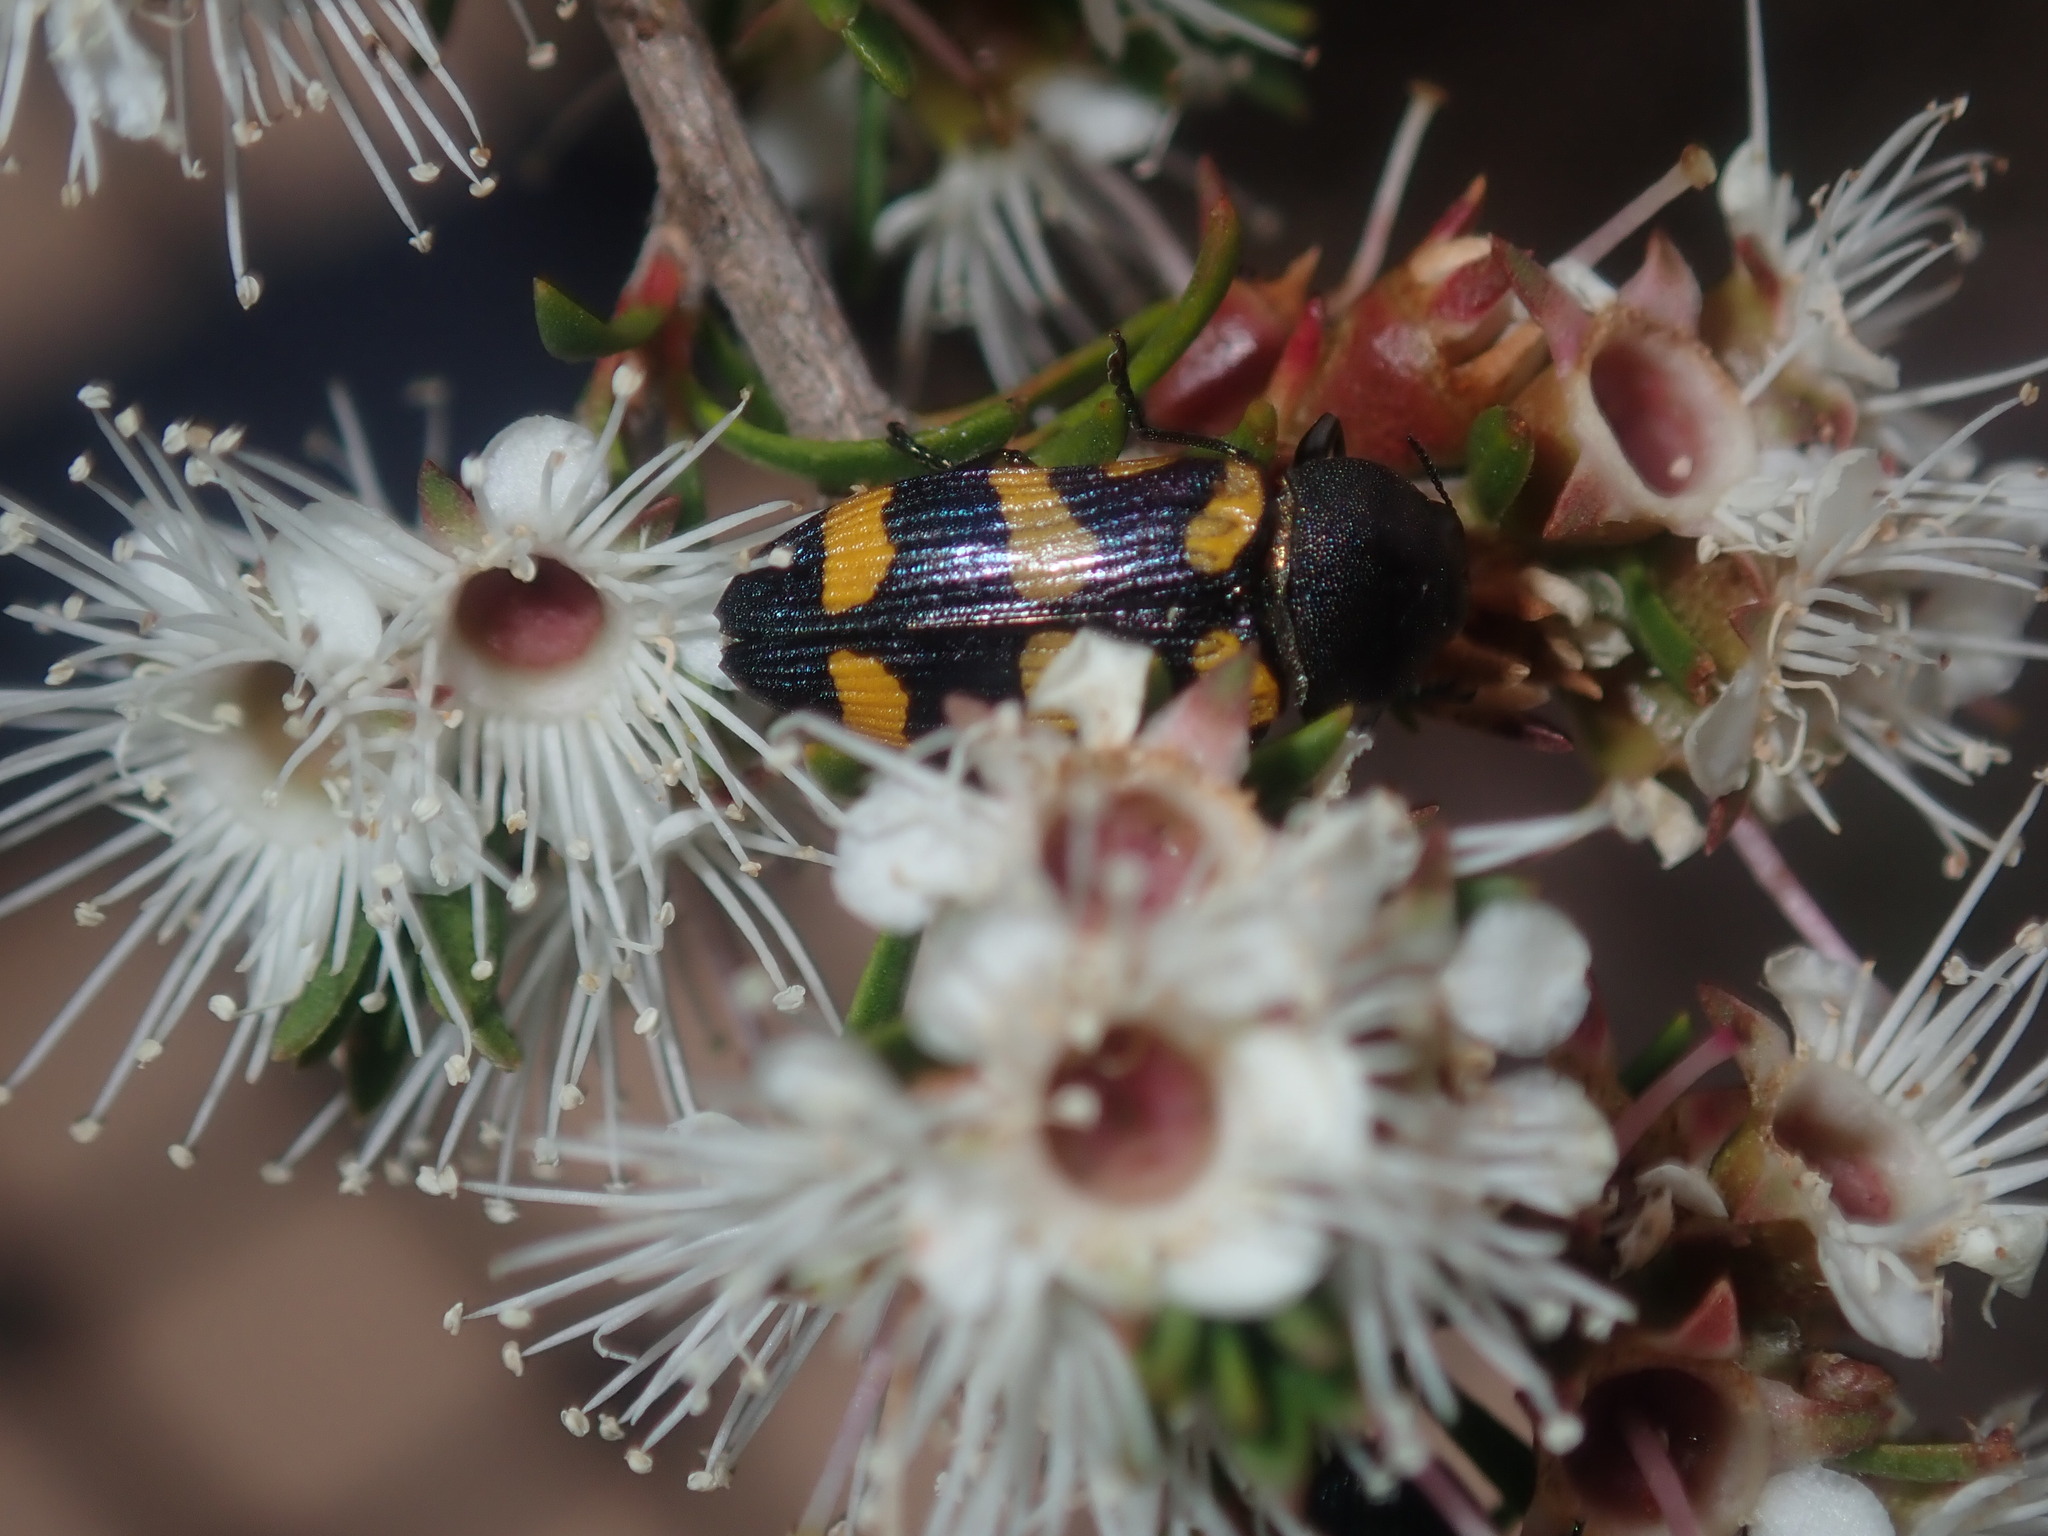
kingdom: Animalia
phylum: Arthropoda
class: Insecta
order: Coleoptera
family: Buprestidae
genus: Castiarina
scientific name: Castiarina inconspicua
